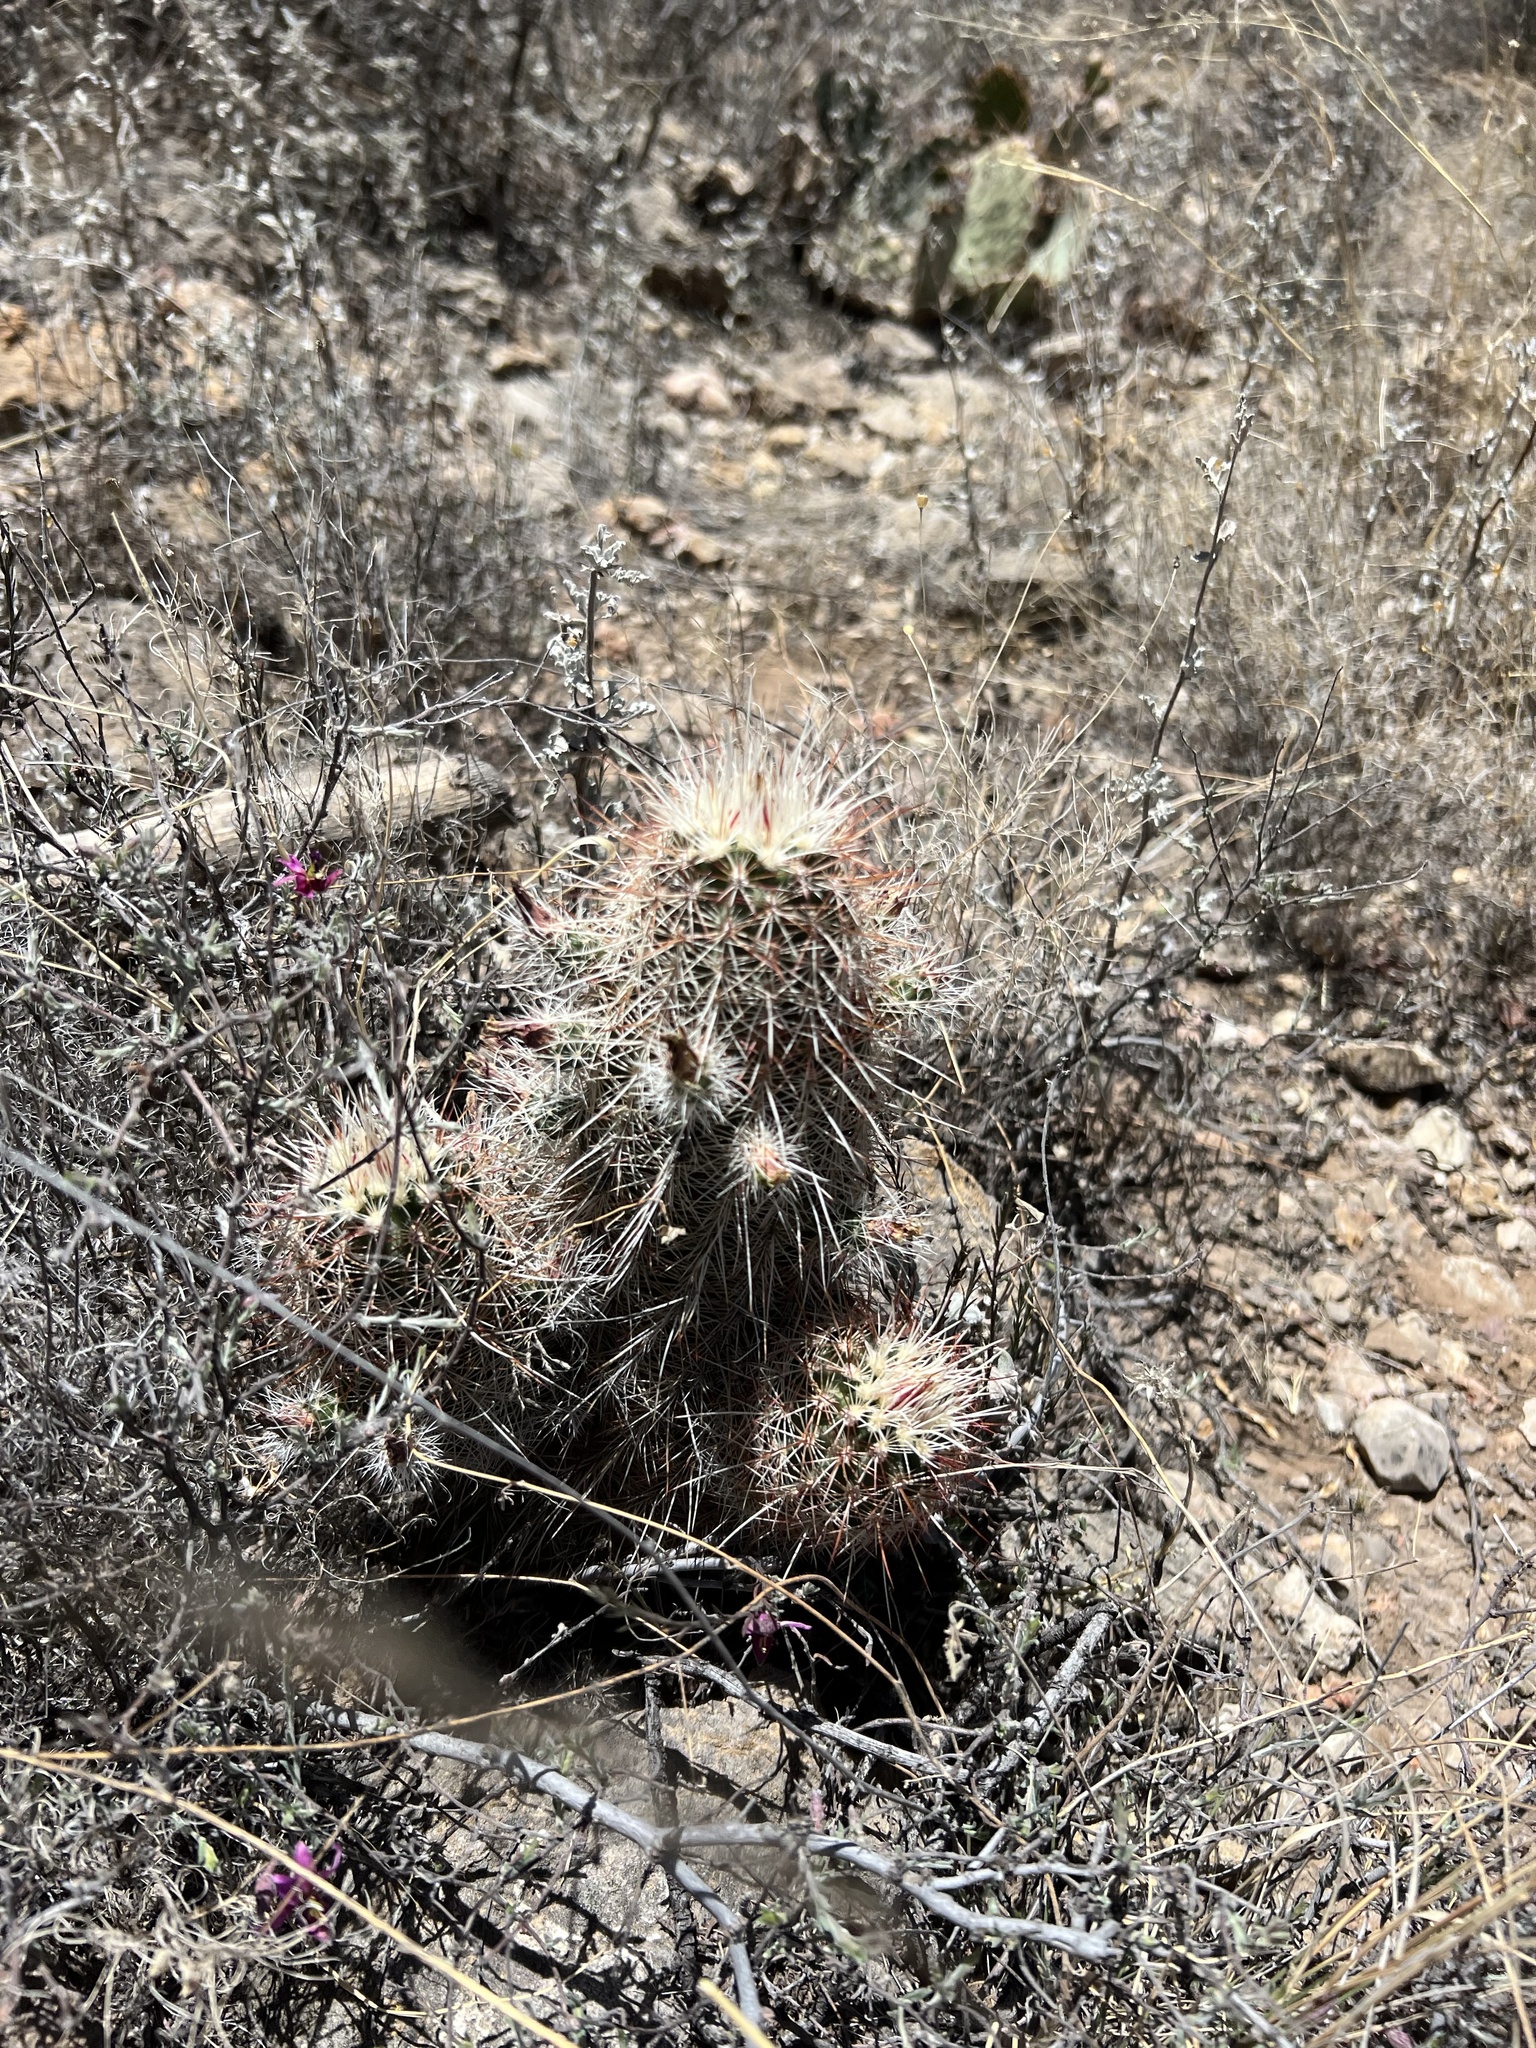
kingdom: Plantae
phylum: Tracheophyta
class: Magnoliopsida
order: Caryophyllales
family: Cactaceae
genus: Echinocereus
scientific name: Echinocereus viridiflorus
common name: Nylon hedgehog cactus
